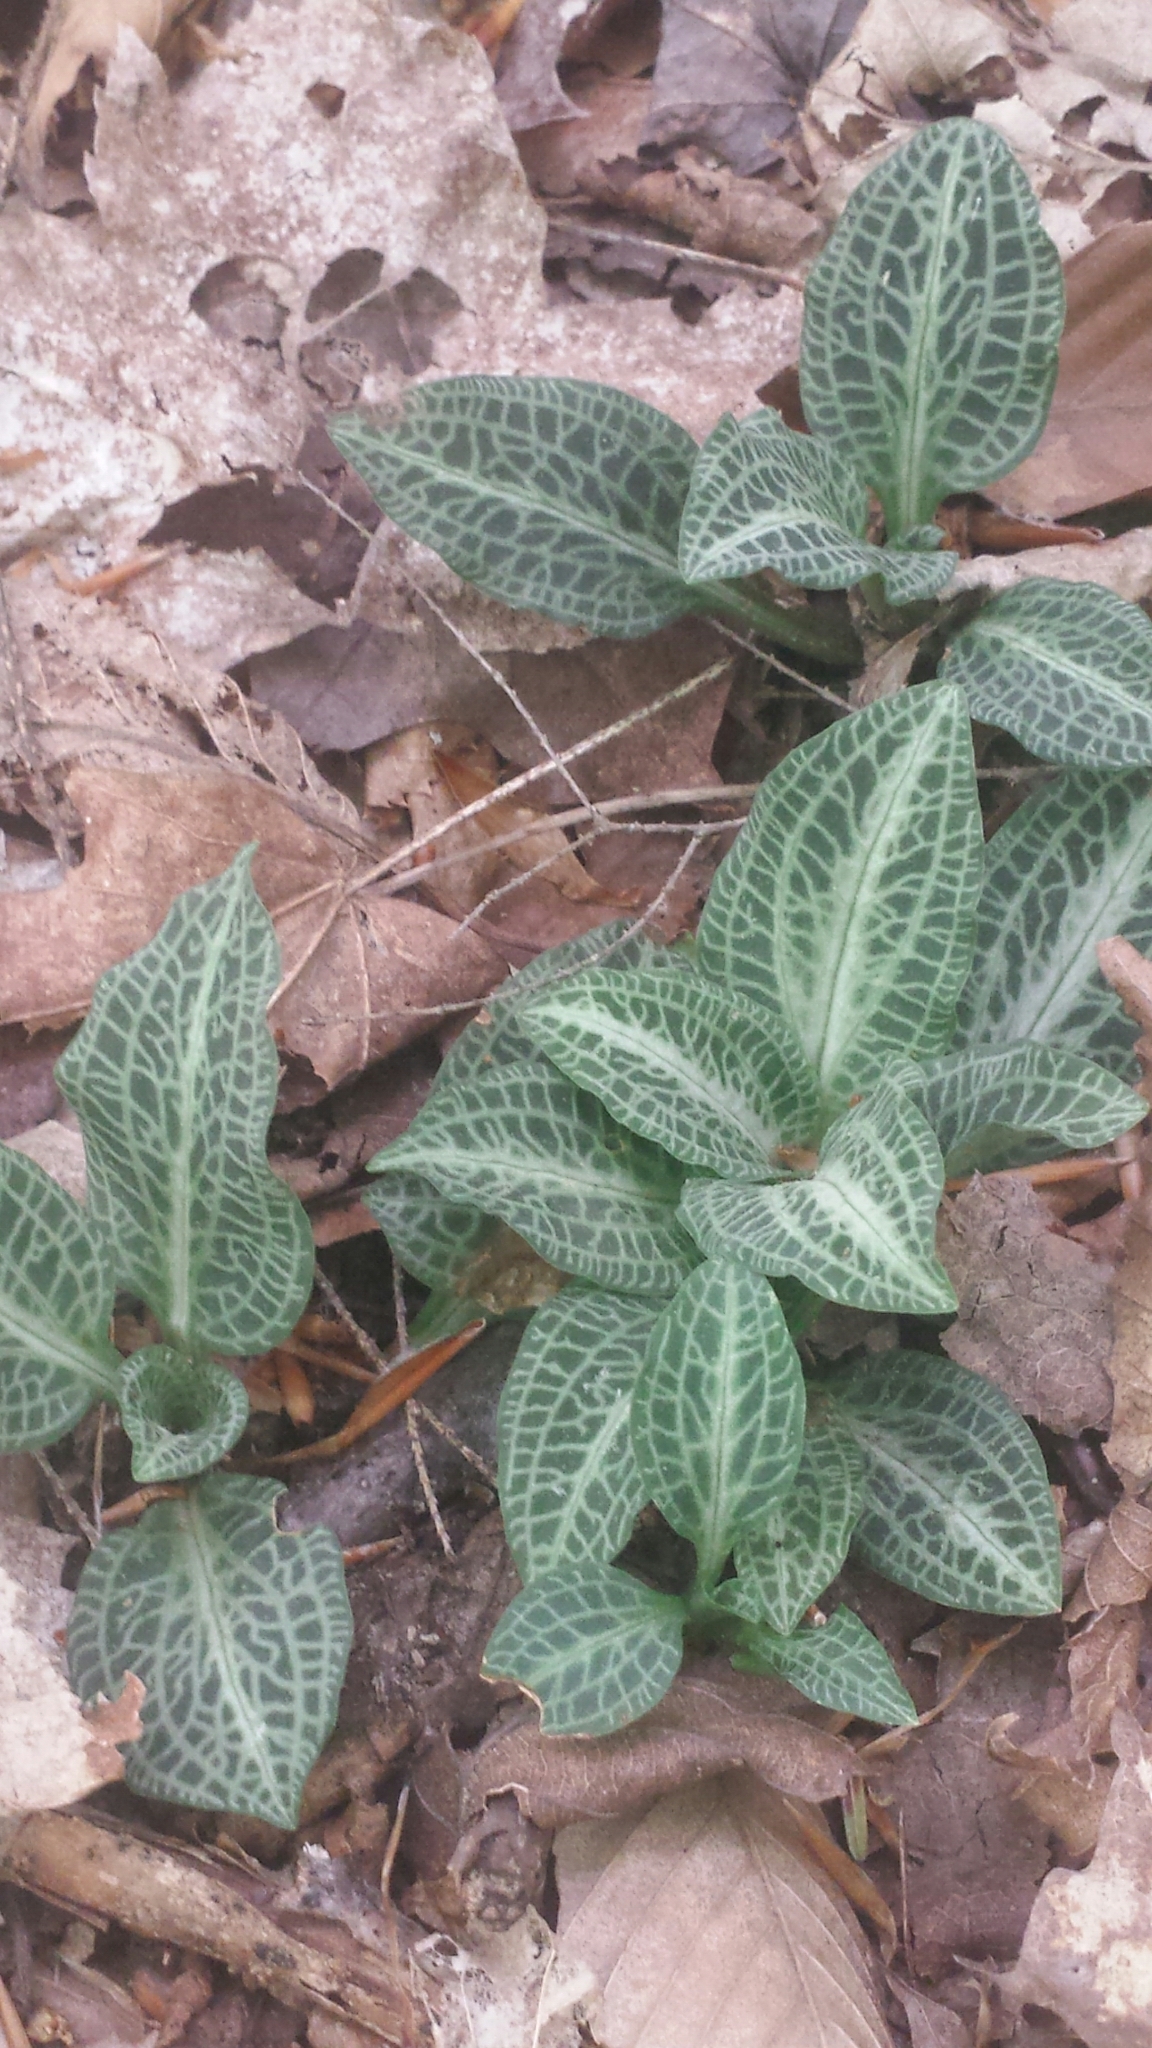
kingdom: Plantae
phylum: Tracheophyta
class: Liliopsida
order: Asparagales
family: Orchidaceae
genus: Goodyera
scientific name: Goodyera pubescens
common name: Downy rattlesnake-plantain
